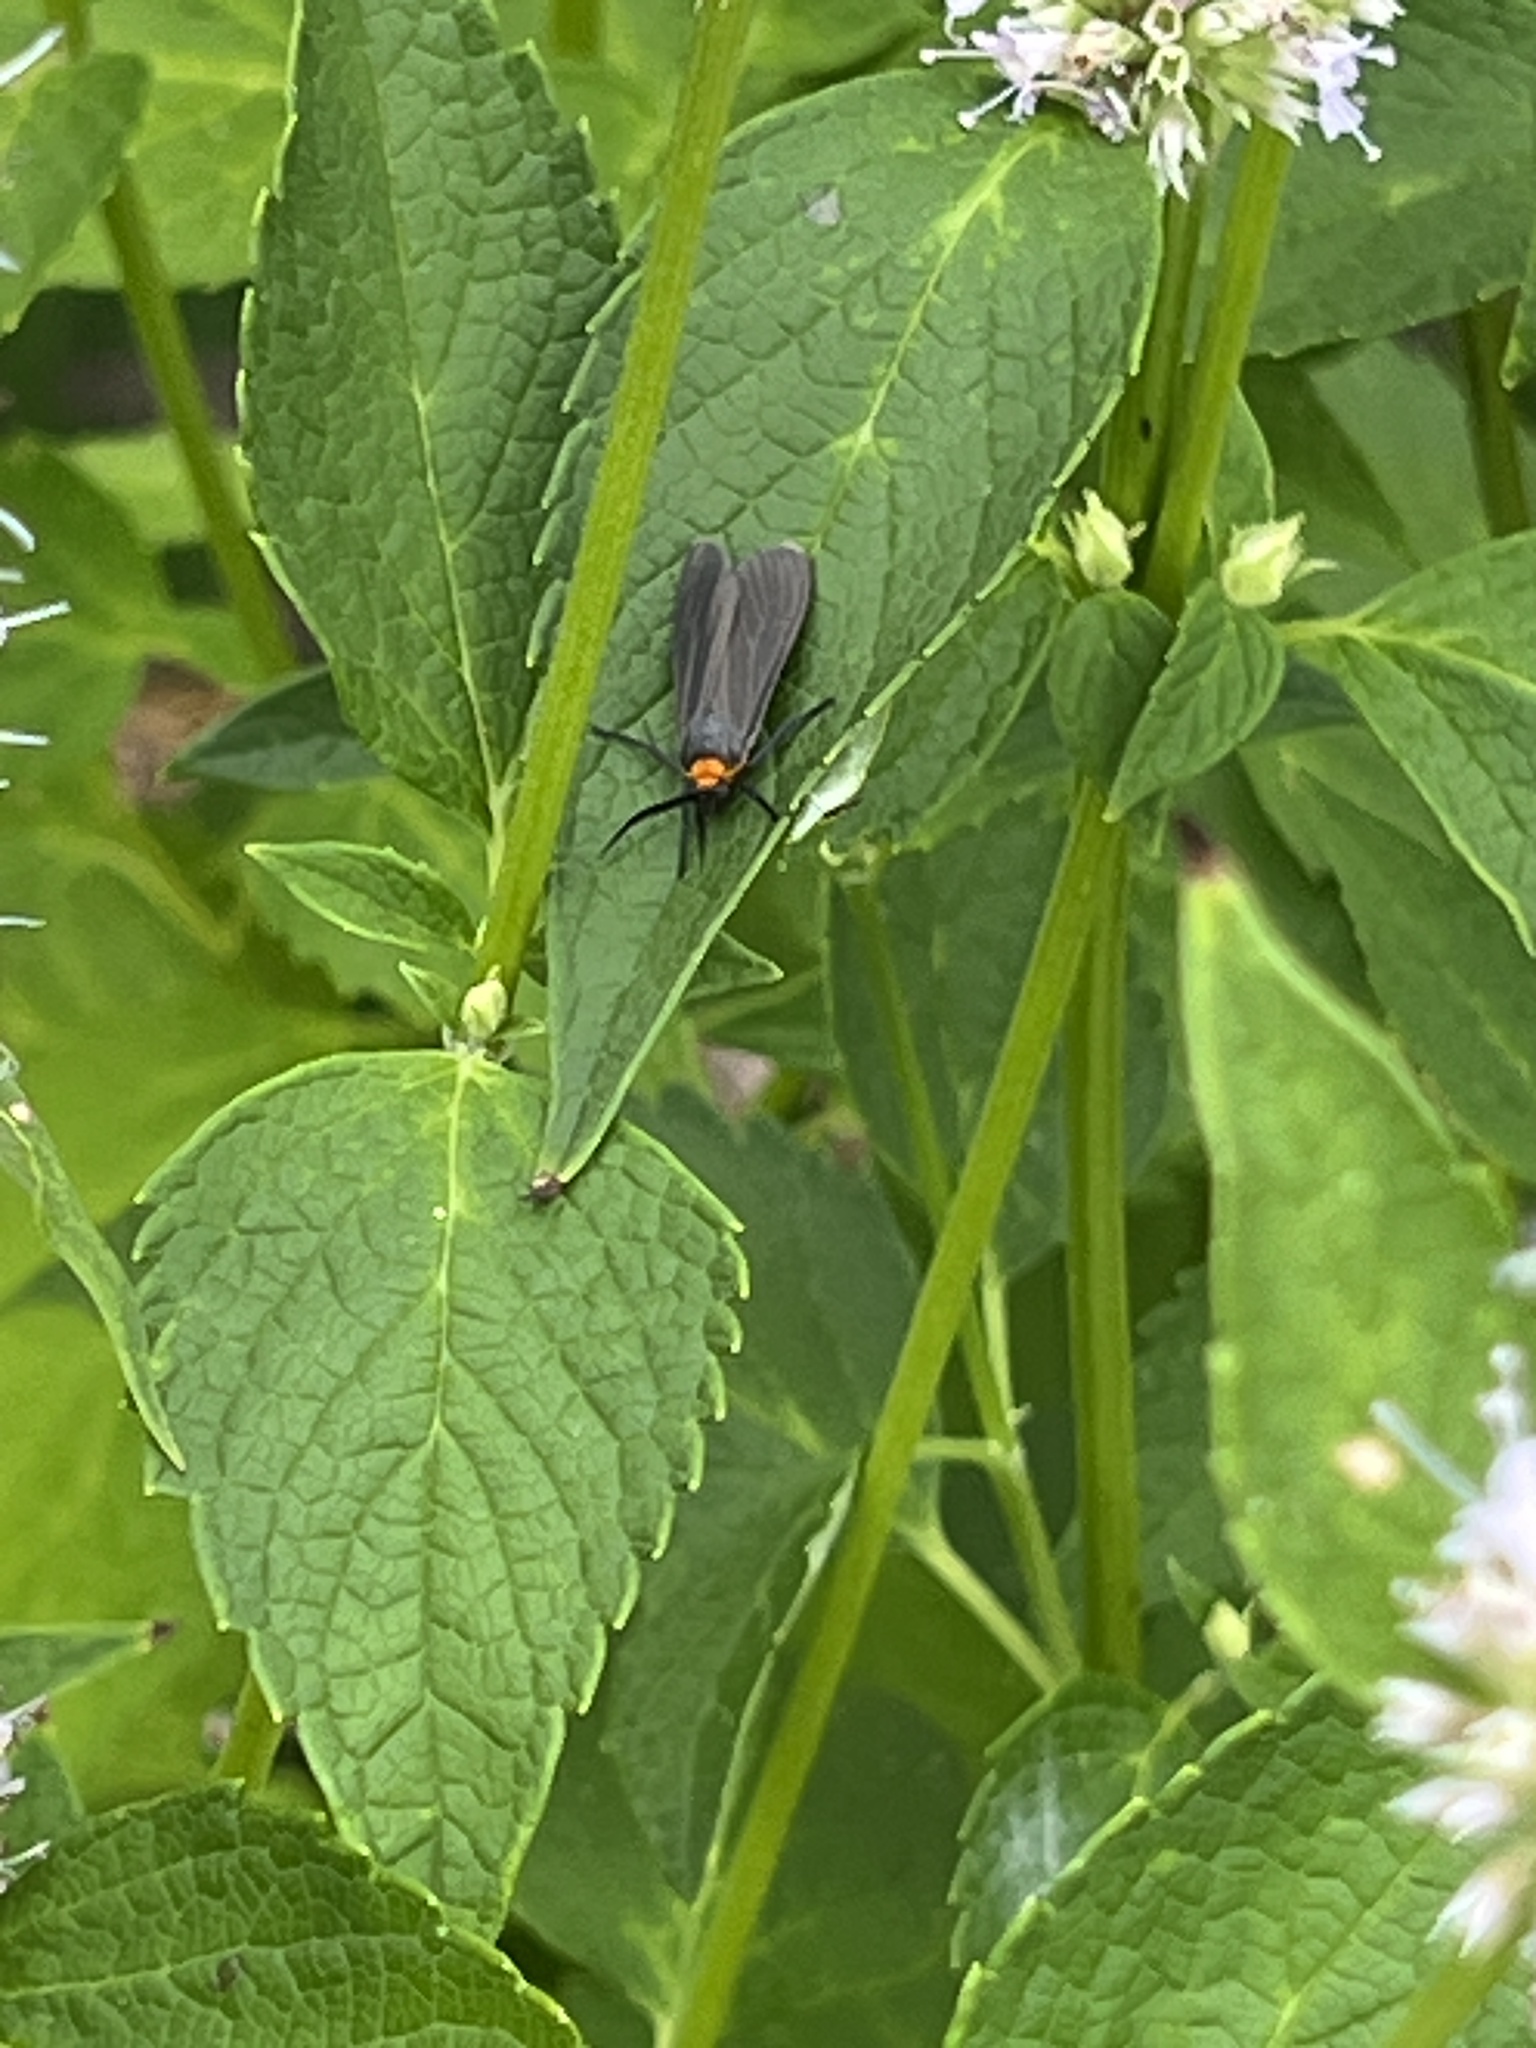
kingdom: Animalia
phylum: Arthropoda
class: Insecta
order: Lepidoptera
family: Erebidae
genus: Cisseps
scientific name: Cisseps fulvicollis
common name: Yellow-collared scape moth
